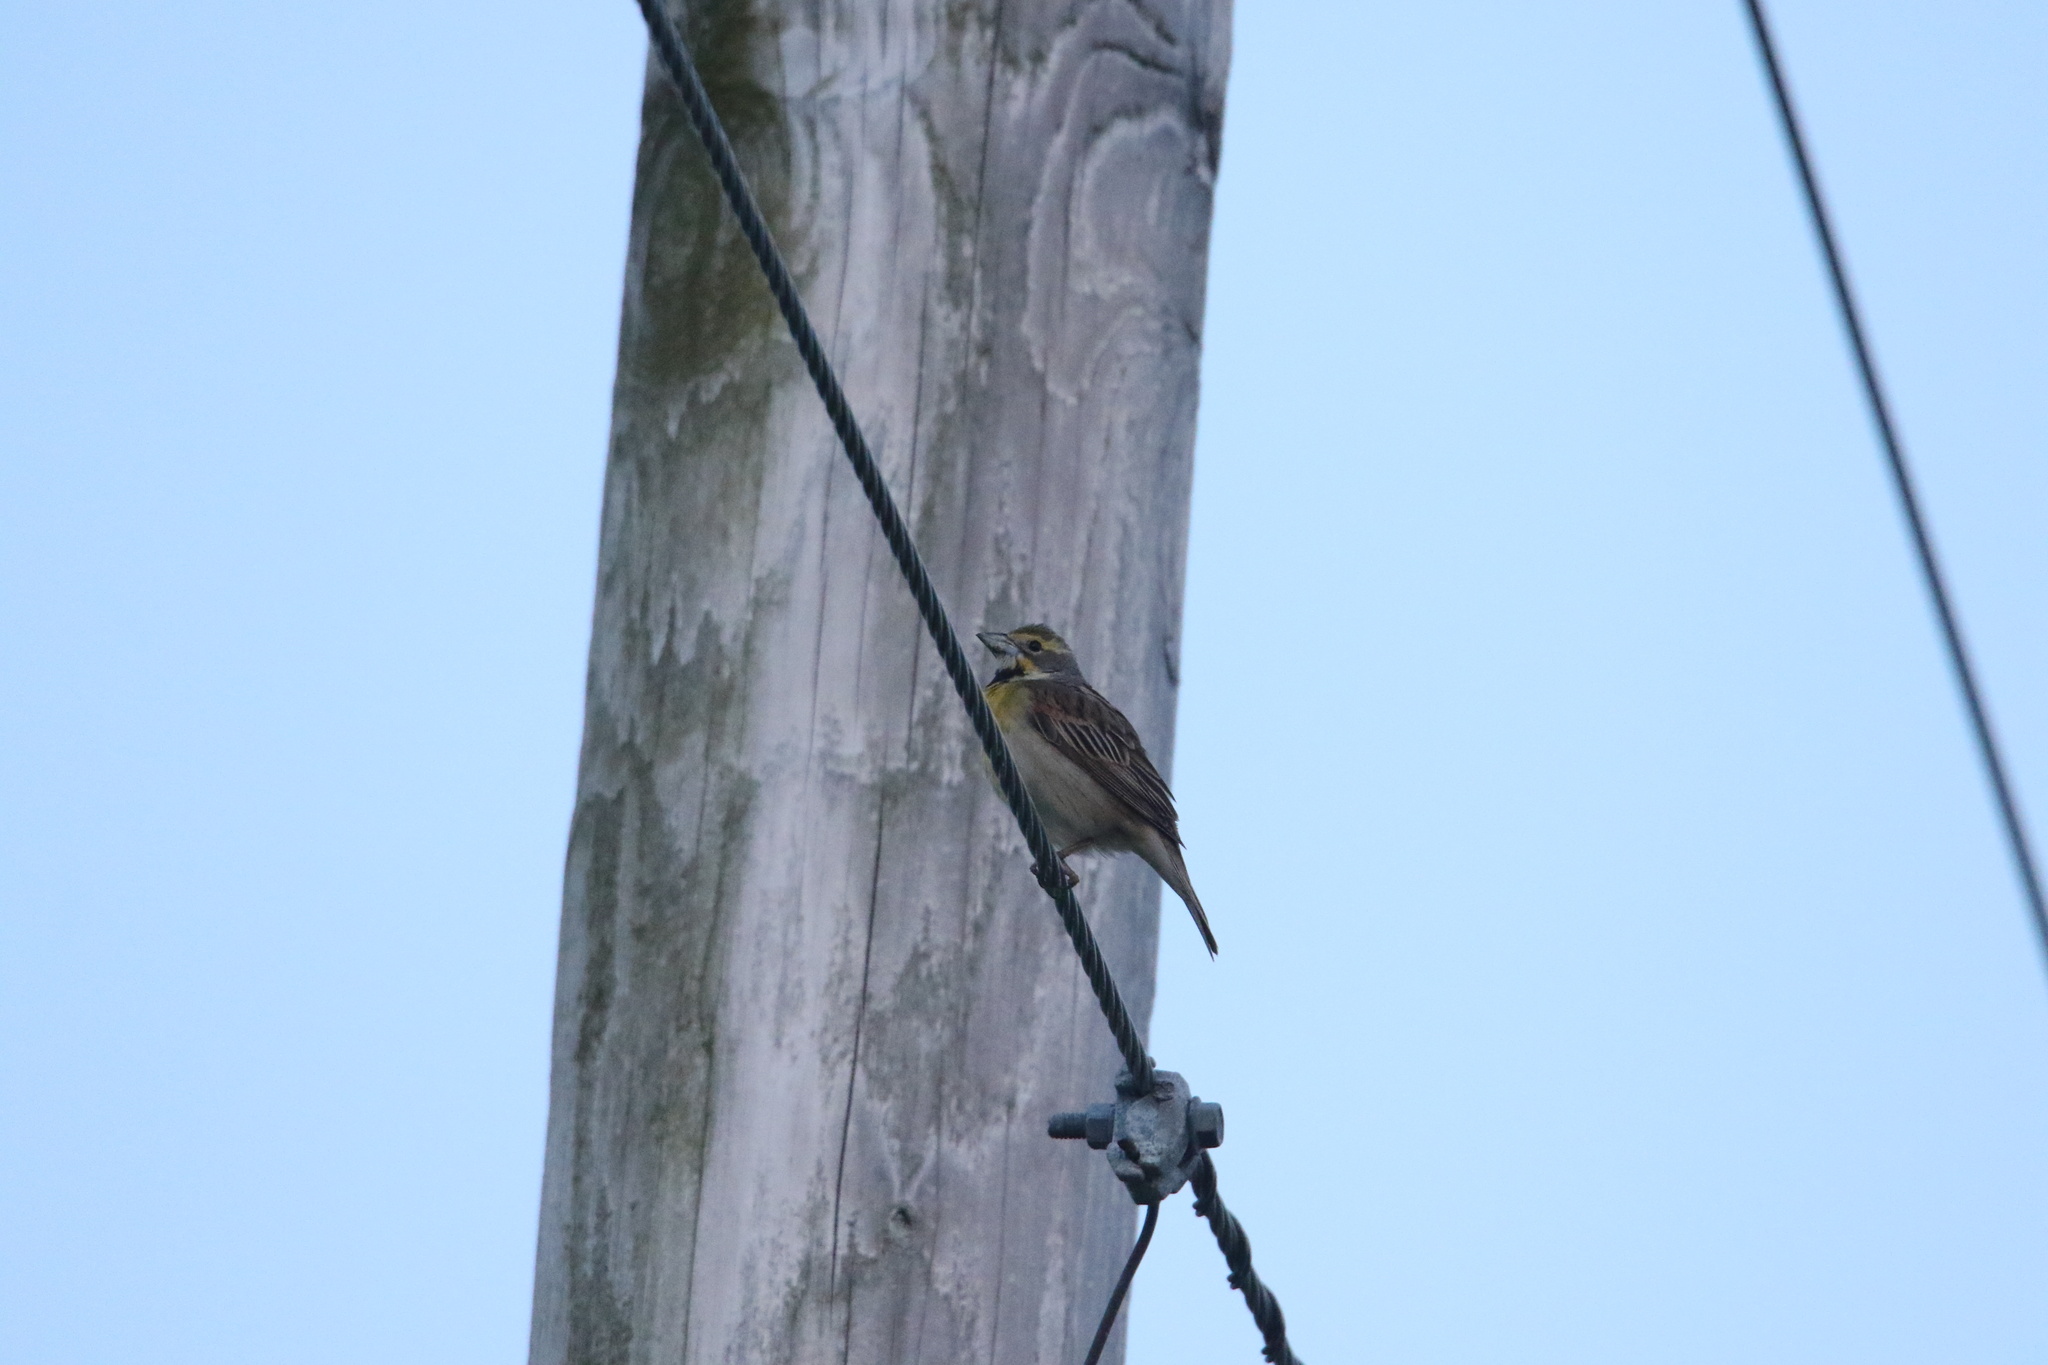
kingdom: Animalia
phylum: Chordata
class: Aves
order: Passeriformes
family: Cardinalidae
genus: Spiza
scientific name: Spiza americana
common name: Dickcissel
